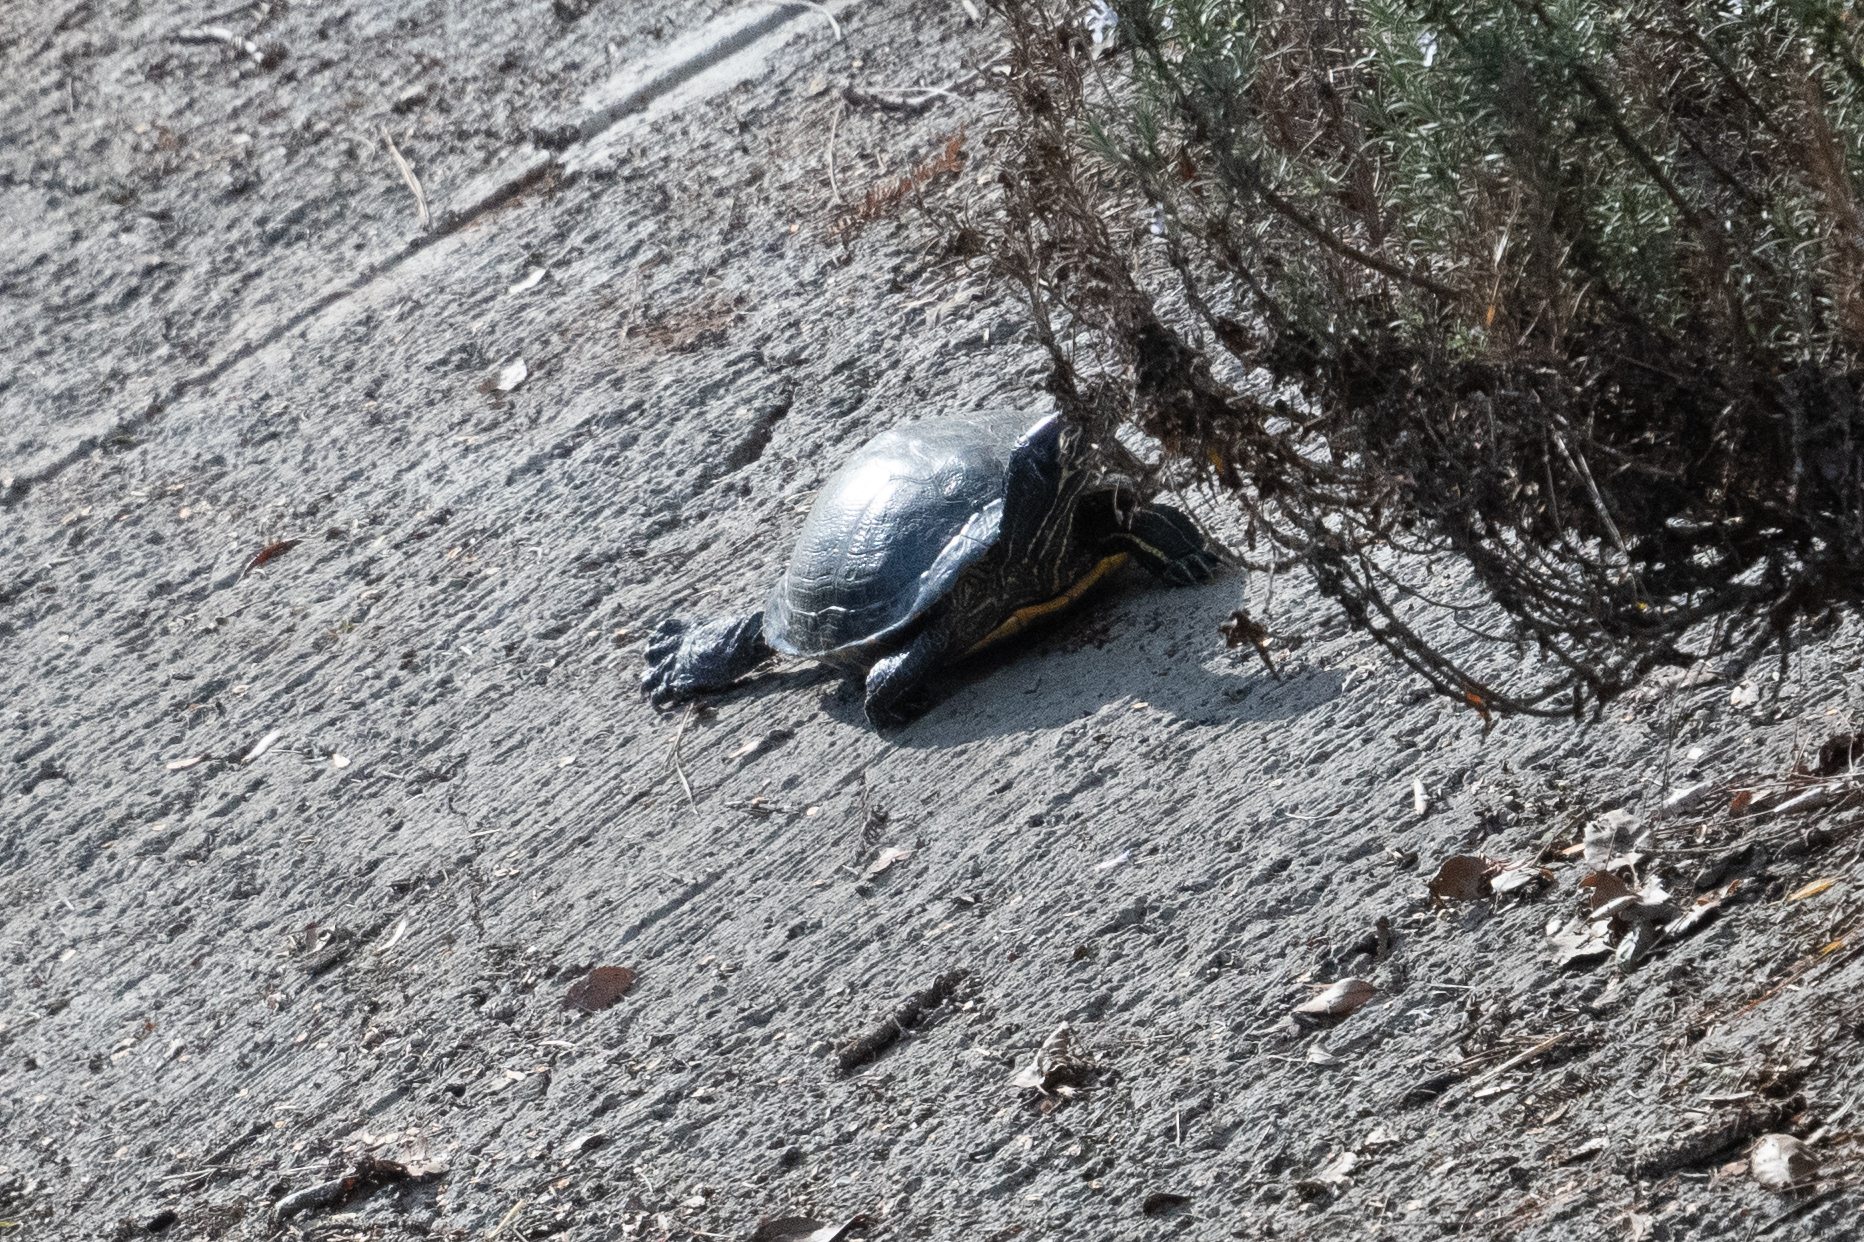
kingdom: Animalia
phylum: Chordata
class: Testudines
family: Emydidae
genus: Trachemys
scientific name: Trachemys scripta
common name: Slider
